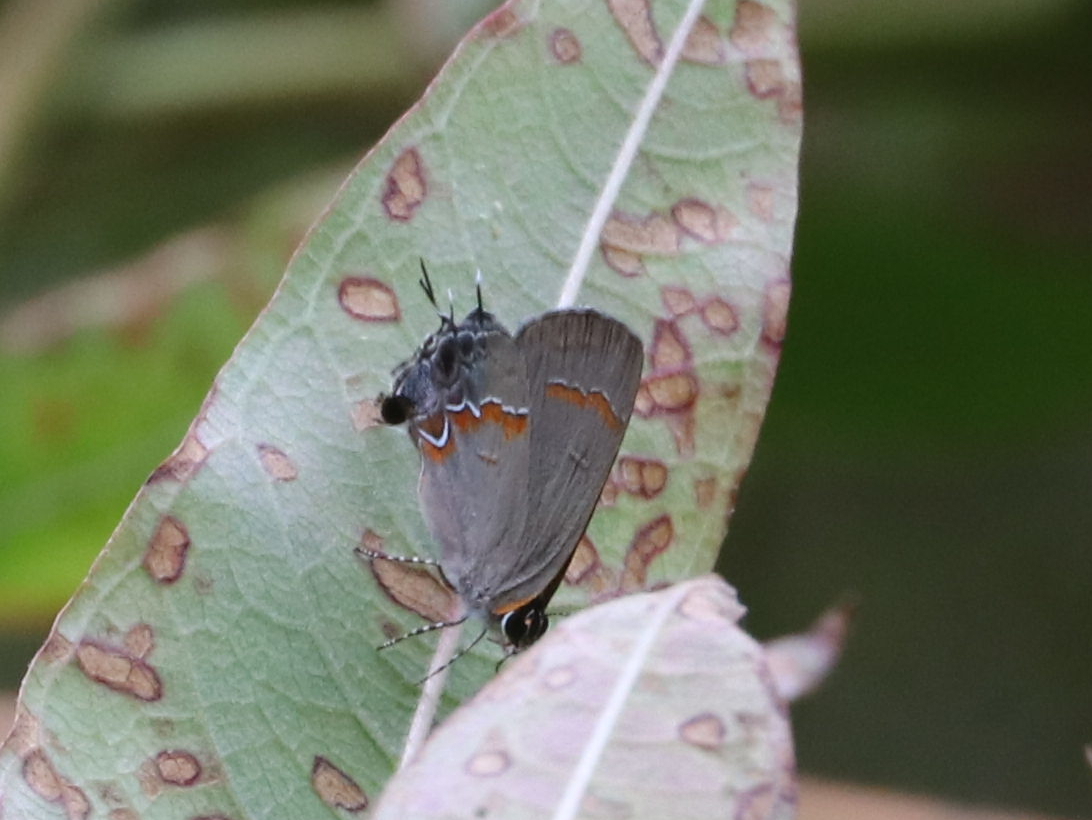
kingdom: Animalia
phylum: Arthropoda
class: Insecta
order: Lepidoptera
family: Lycaenidae
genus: Calycopis
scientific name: Calycopis cecrops
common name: Red-banded hairstreak
